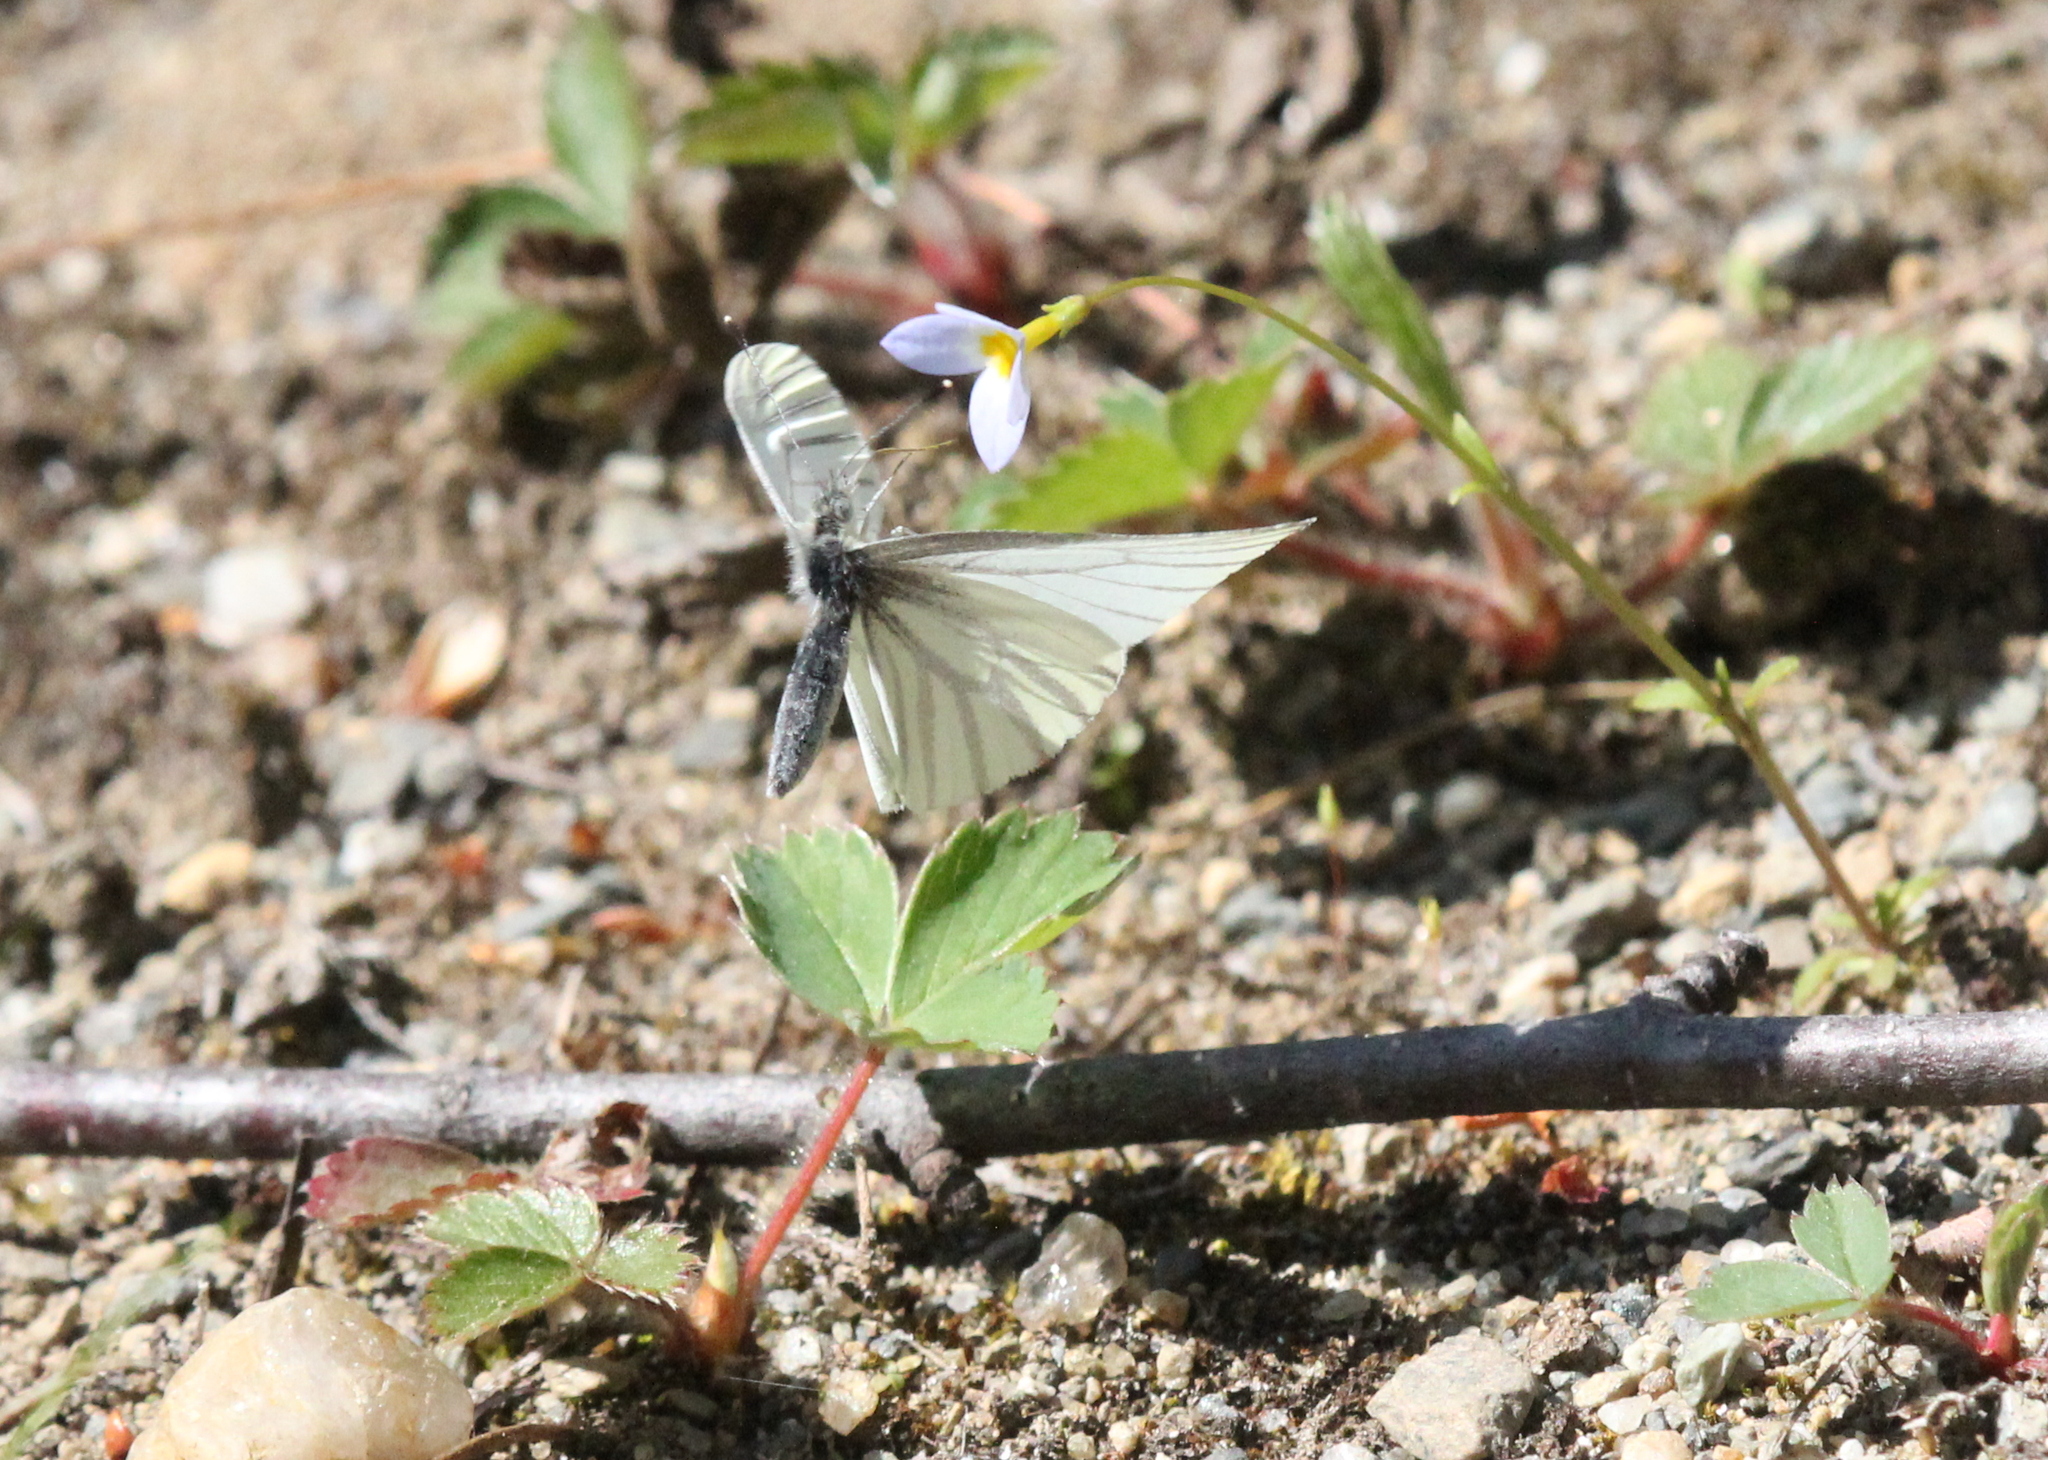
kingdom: Animalia
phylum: Arthropoda
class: Insecta
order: Lepidoptera
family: Pieridae
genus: Pieris
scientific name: Pieris oleracea
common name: Mustard white
